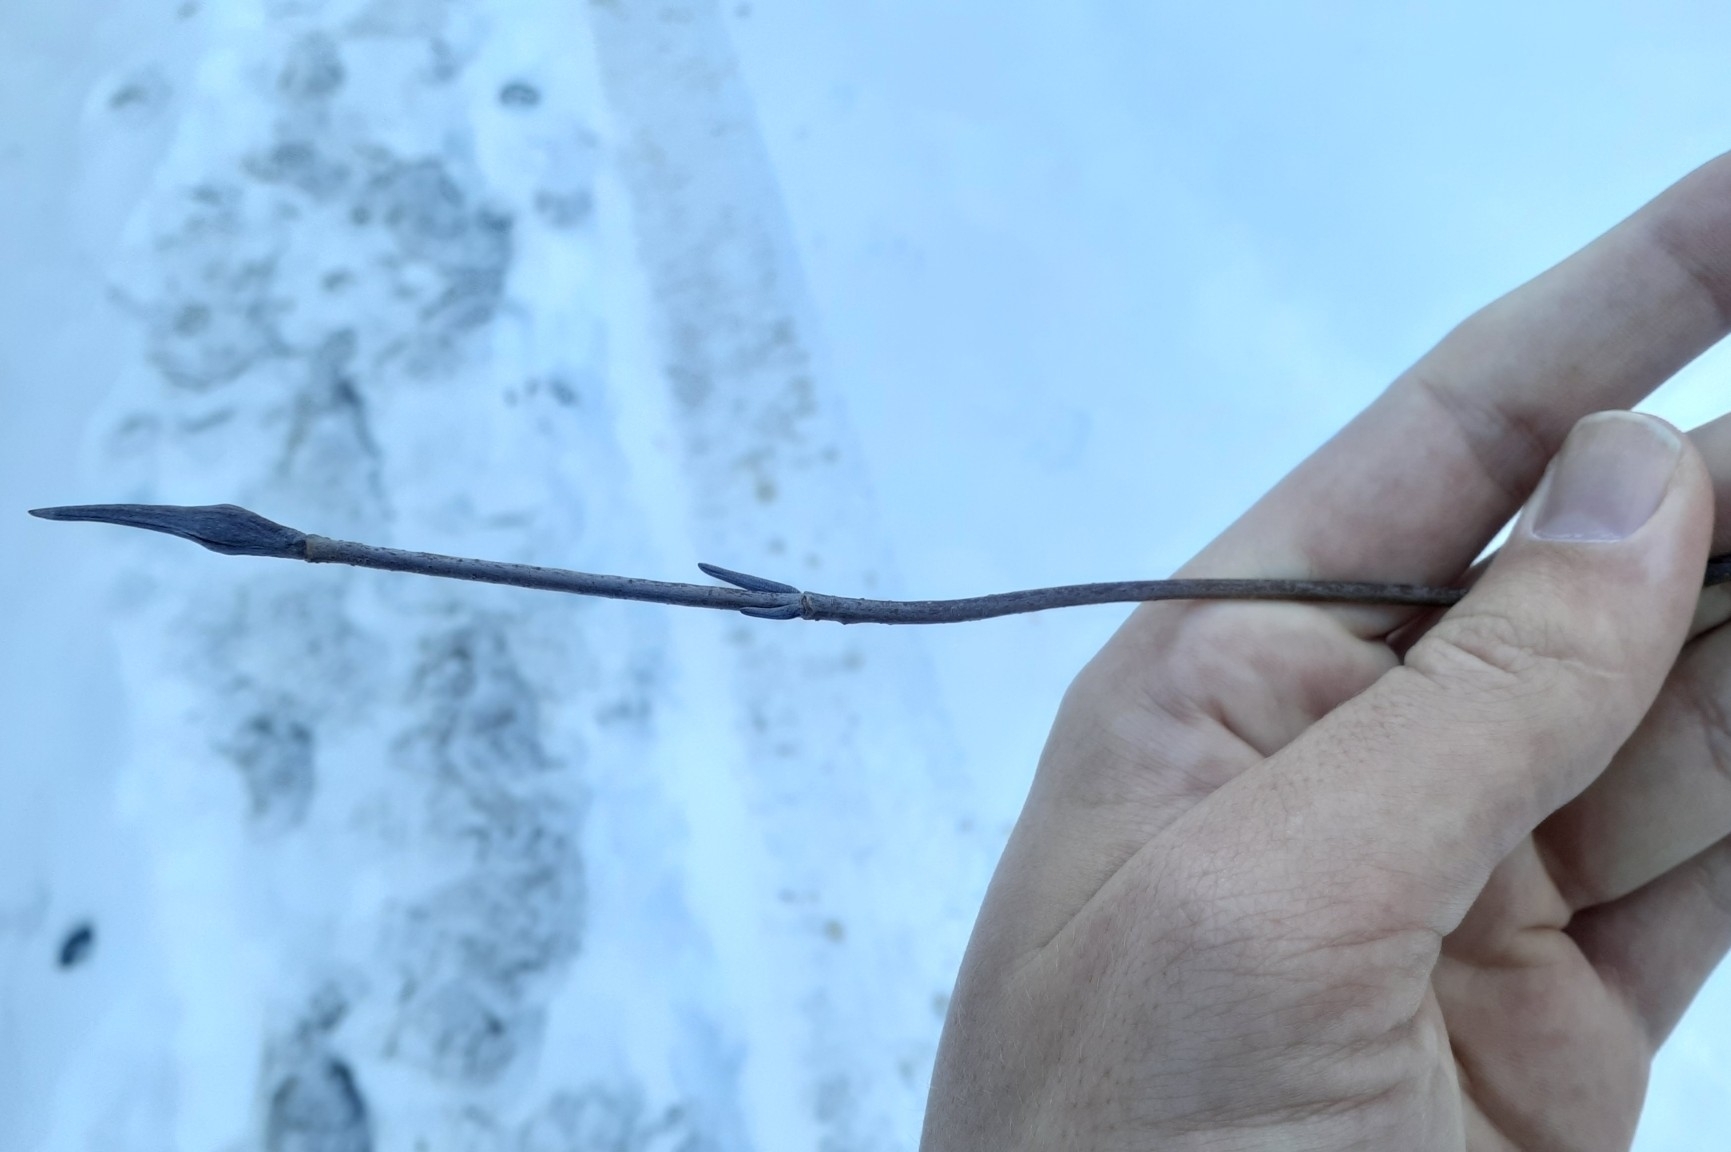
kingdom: Plantae
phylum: Tracheophyta
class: Magnoliopsida
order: Dipsacales
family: Viburnaceae
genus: Viburnum
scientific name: Viburnum lentago
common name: Black haw
